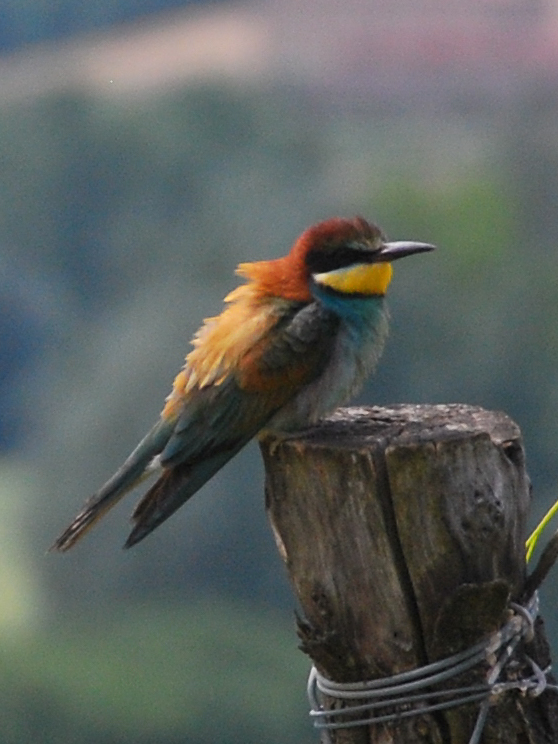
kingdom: Animalia
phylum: Chordata
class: Aves
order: Coraciiformes
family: Meropidae
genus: Merops
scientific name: Merops apiaster
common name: European bee-eater
